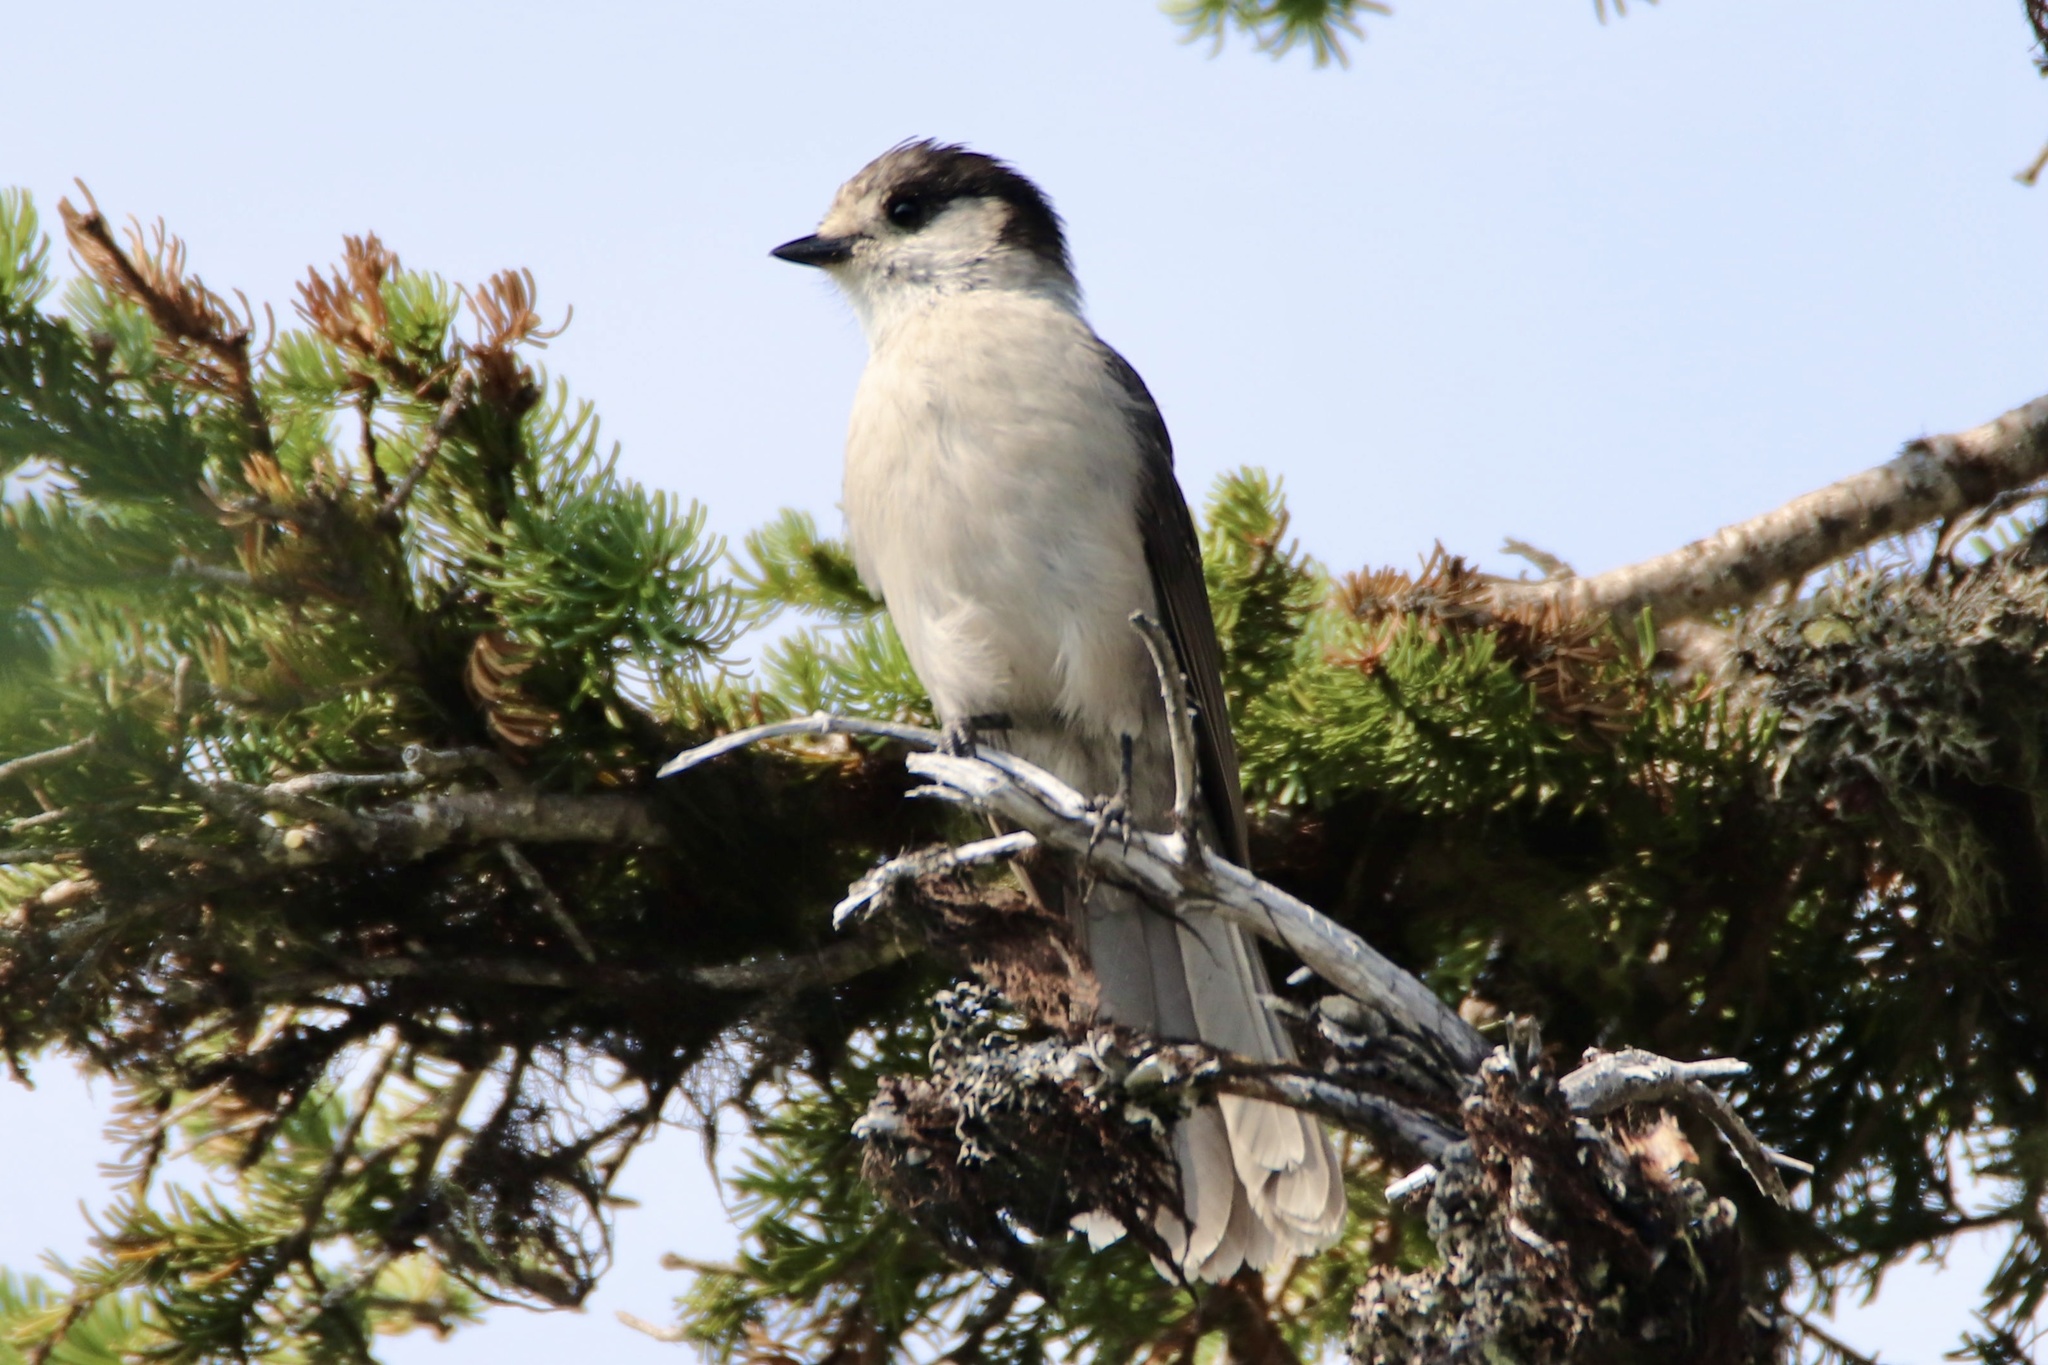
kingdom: Animalia
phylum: Chordata
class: Aves
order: Passeriformes
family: Corvidae
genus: Perisoreus
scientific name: Perisoreus canadensis
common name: Gray jay
